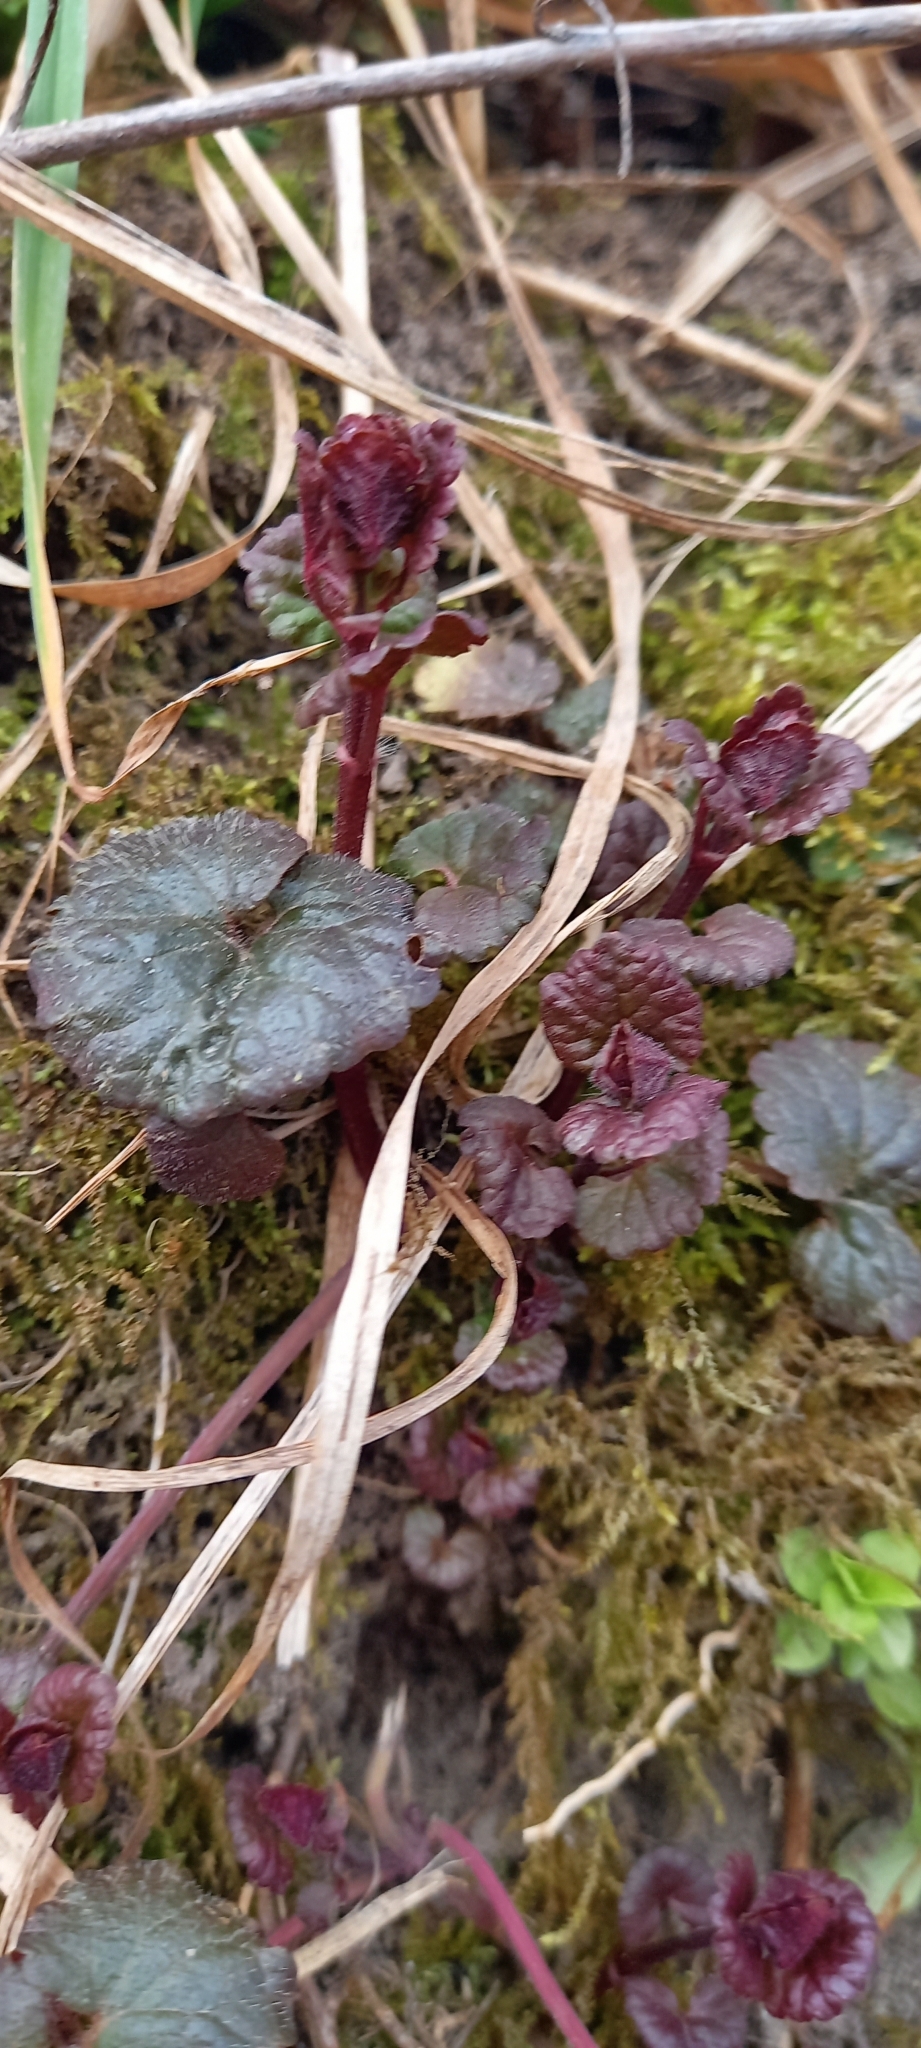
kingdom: Plantae
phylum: Tracheophyta
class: Magnoliopsida
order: Lamiales
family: Lamiaceae
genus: Glechoma
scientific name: Glechoma hederacea
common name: Ground ivy
